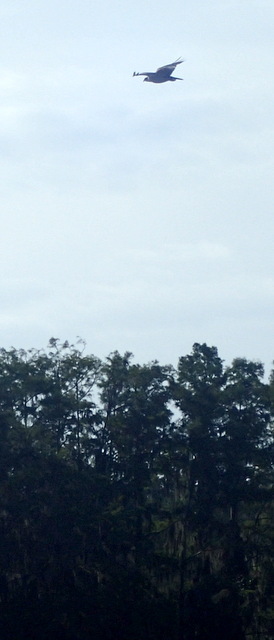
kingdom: Animalia
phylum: Chordata
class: Aves
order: Accipitriformes
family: Pandionidae
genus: Pandion
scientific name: Pandion haliaetus
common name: Osprey
